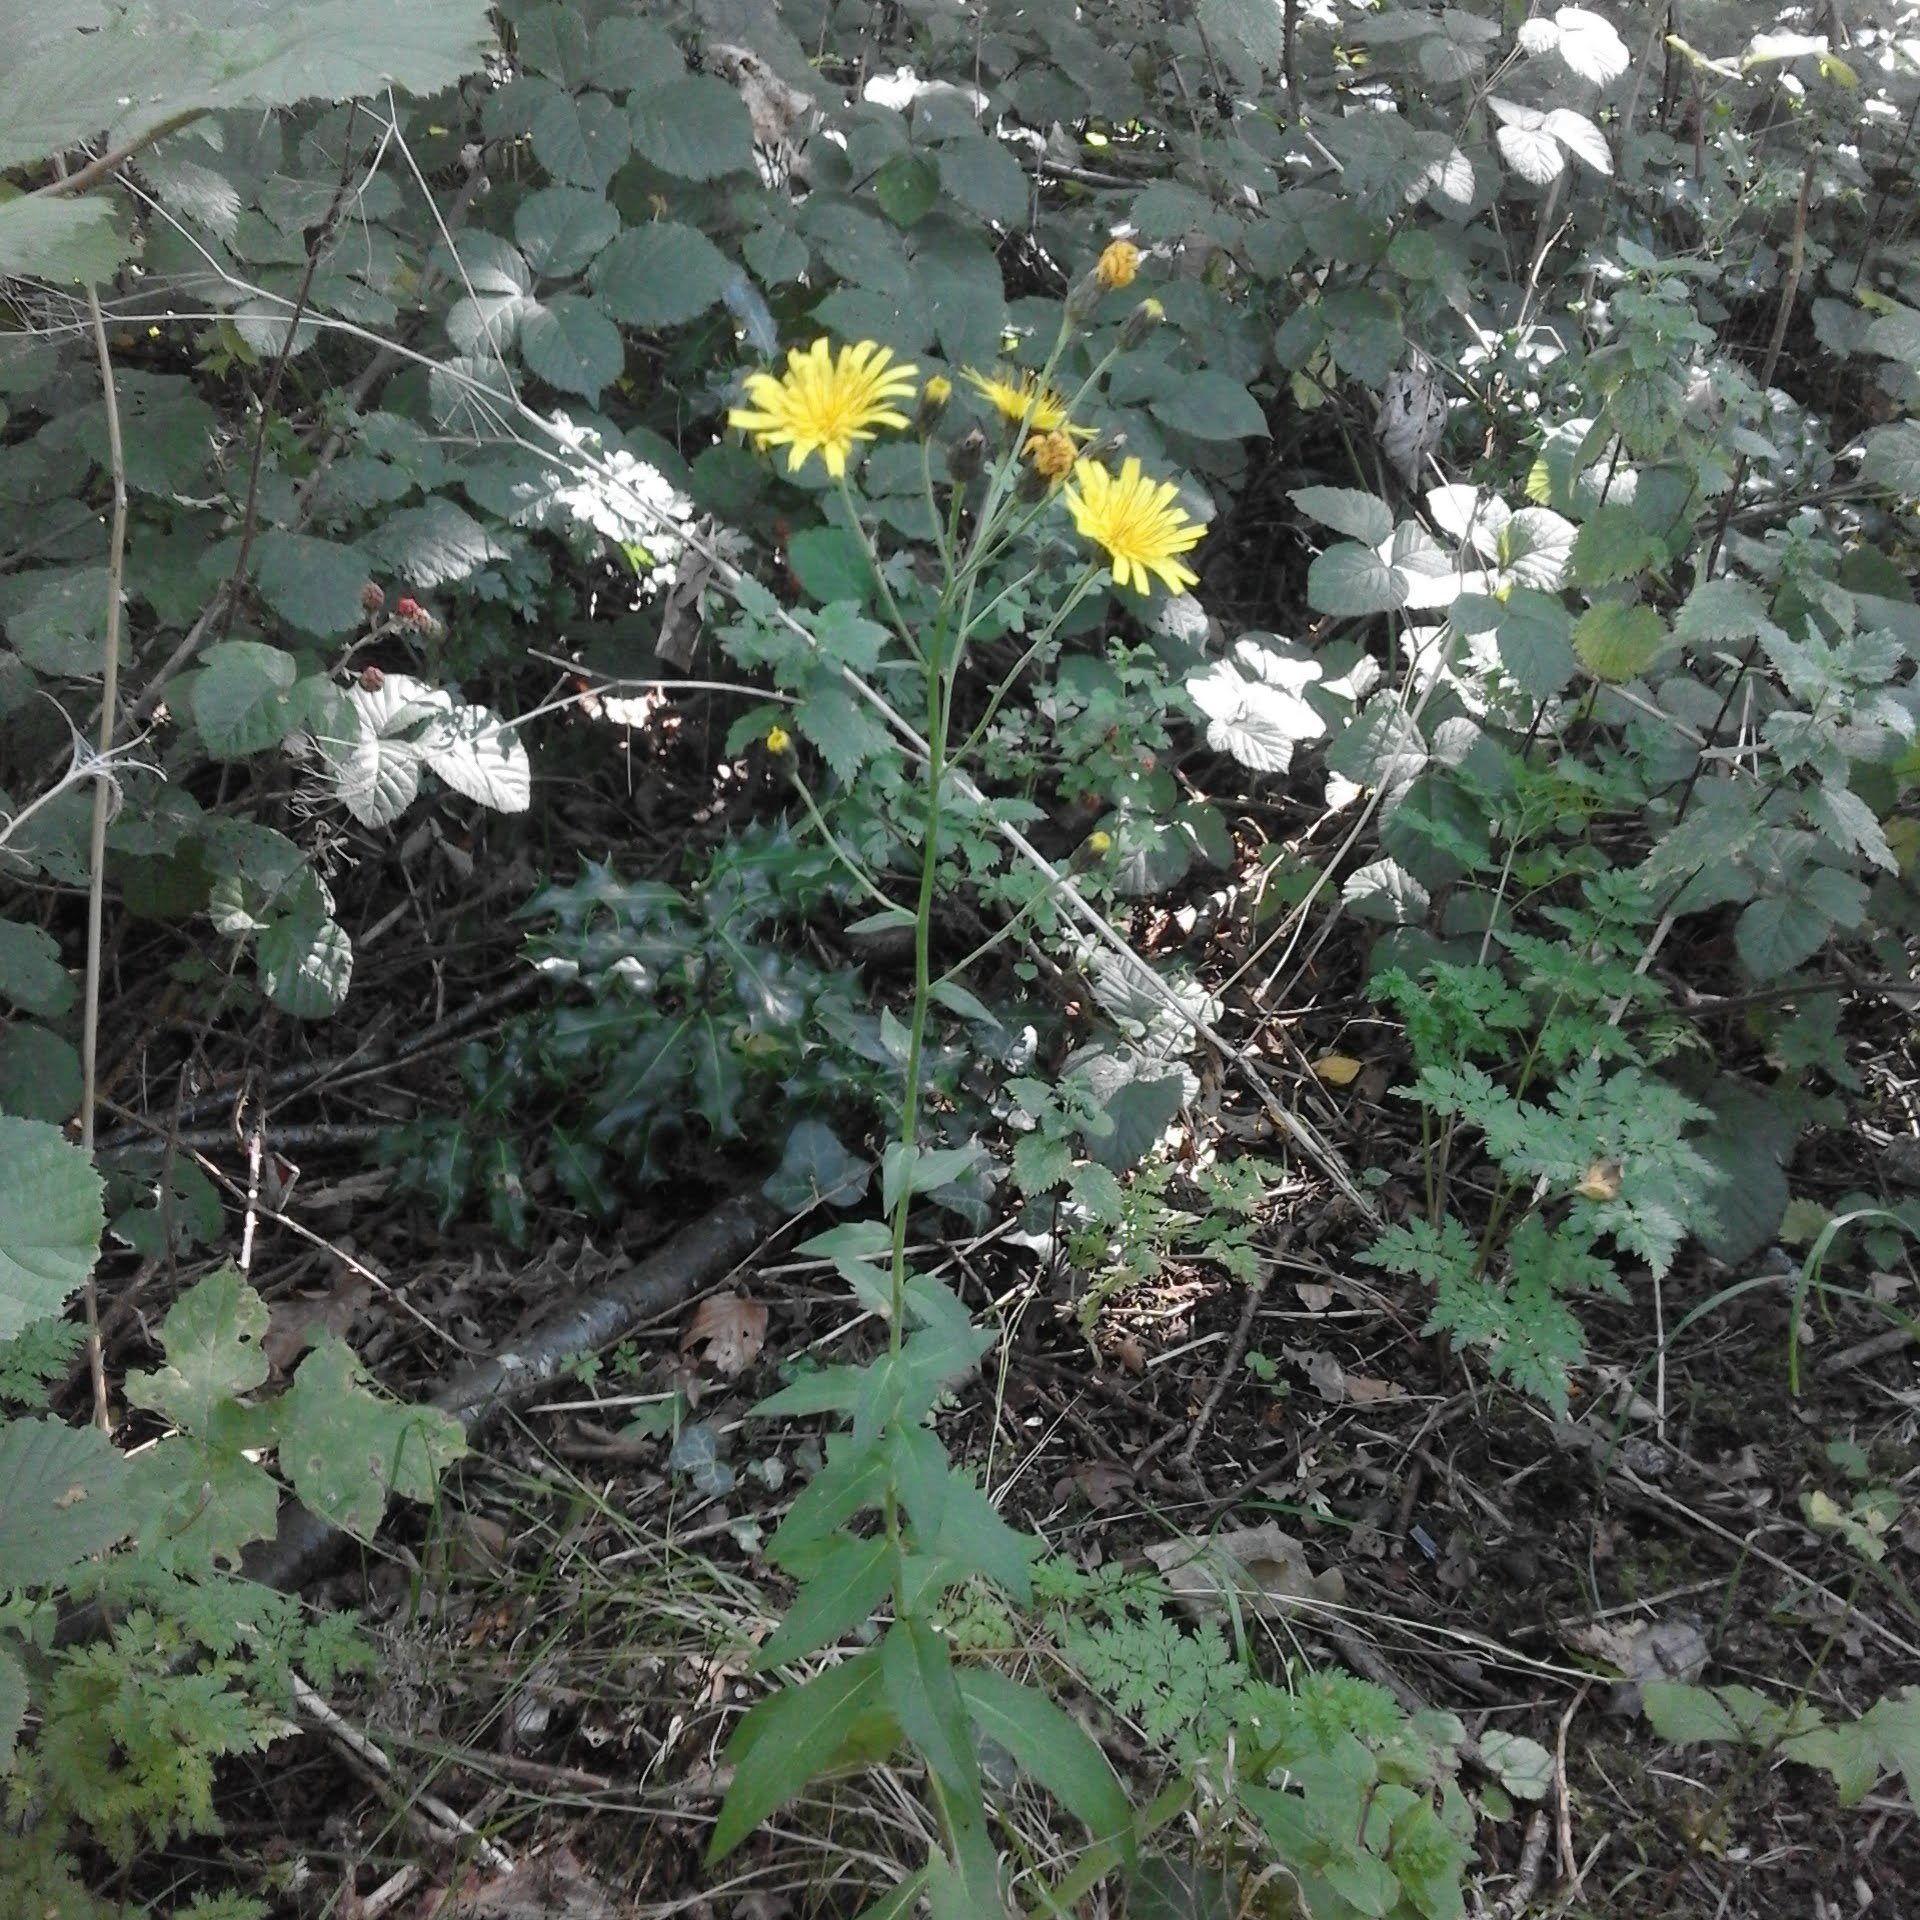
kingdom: Plantae
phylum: Tracheophyta
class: Magnoliopsida
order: Asterales
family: Asteraceae
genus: Hieracium
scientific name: Hieracium sabaudum
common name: New england hawkweed
